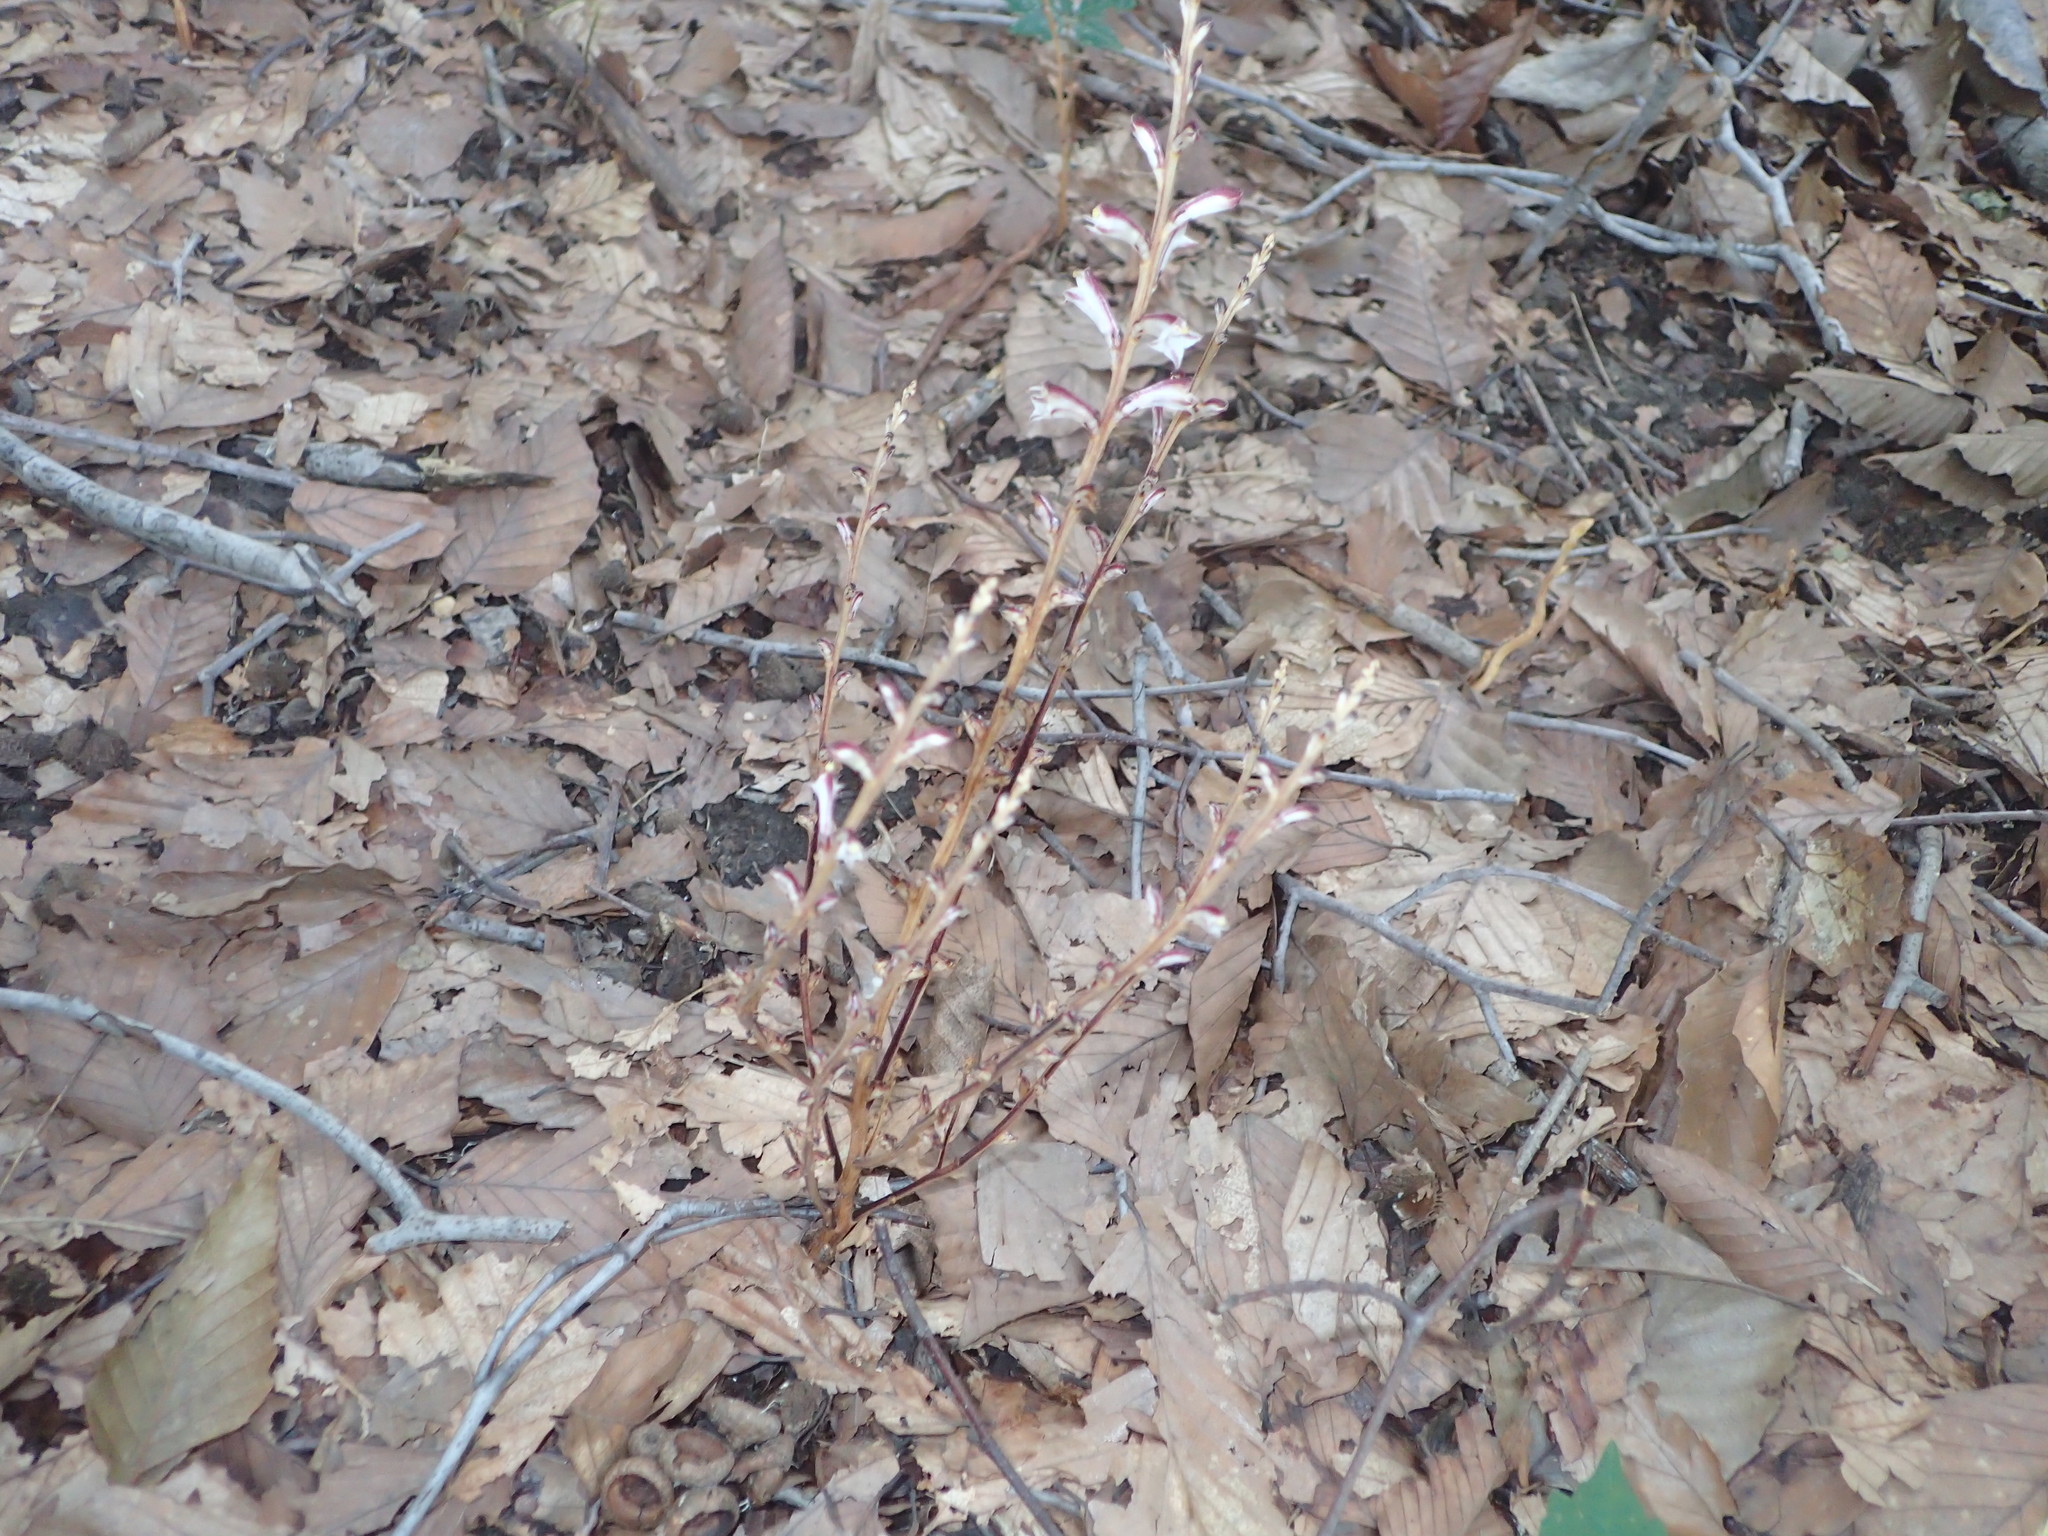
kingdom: Plantae
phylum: Tracheophyta
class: Magnoliopsida
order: Lamiales
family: Orobanchaceae
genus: Epifagus
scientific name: Epifagus virginiana
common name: Beechdrops
